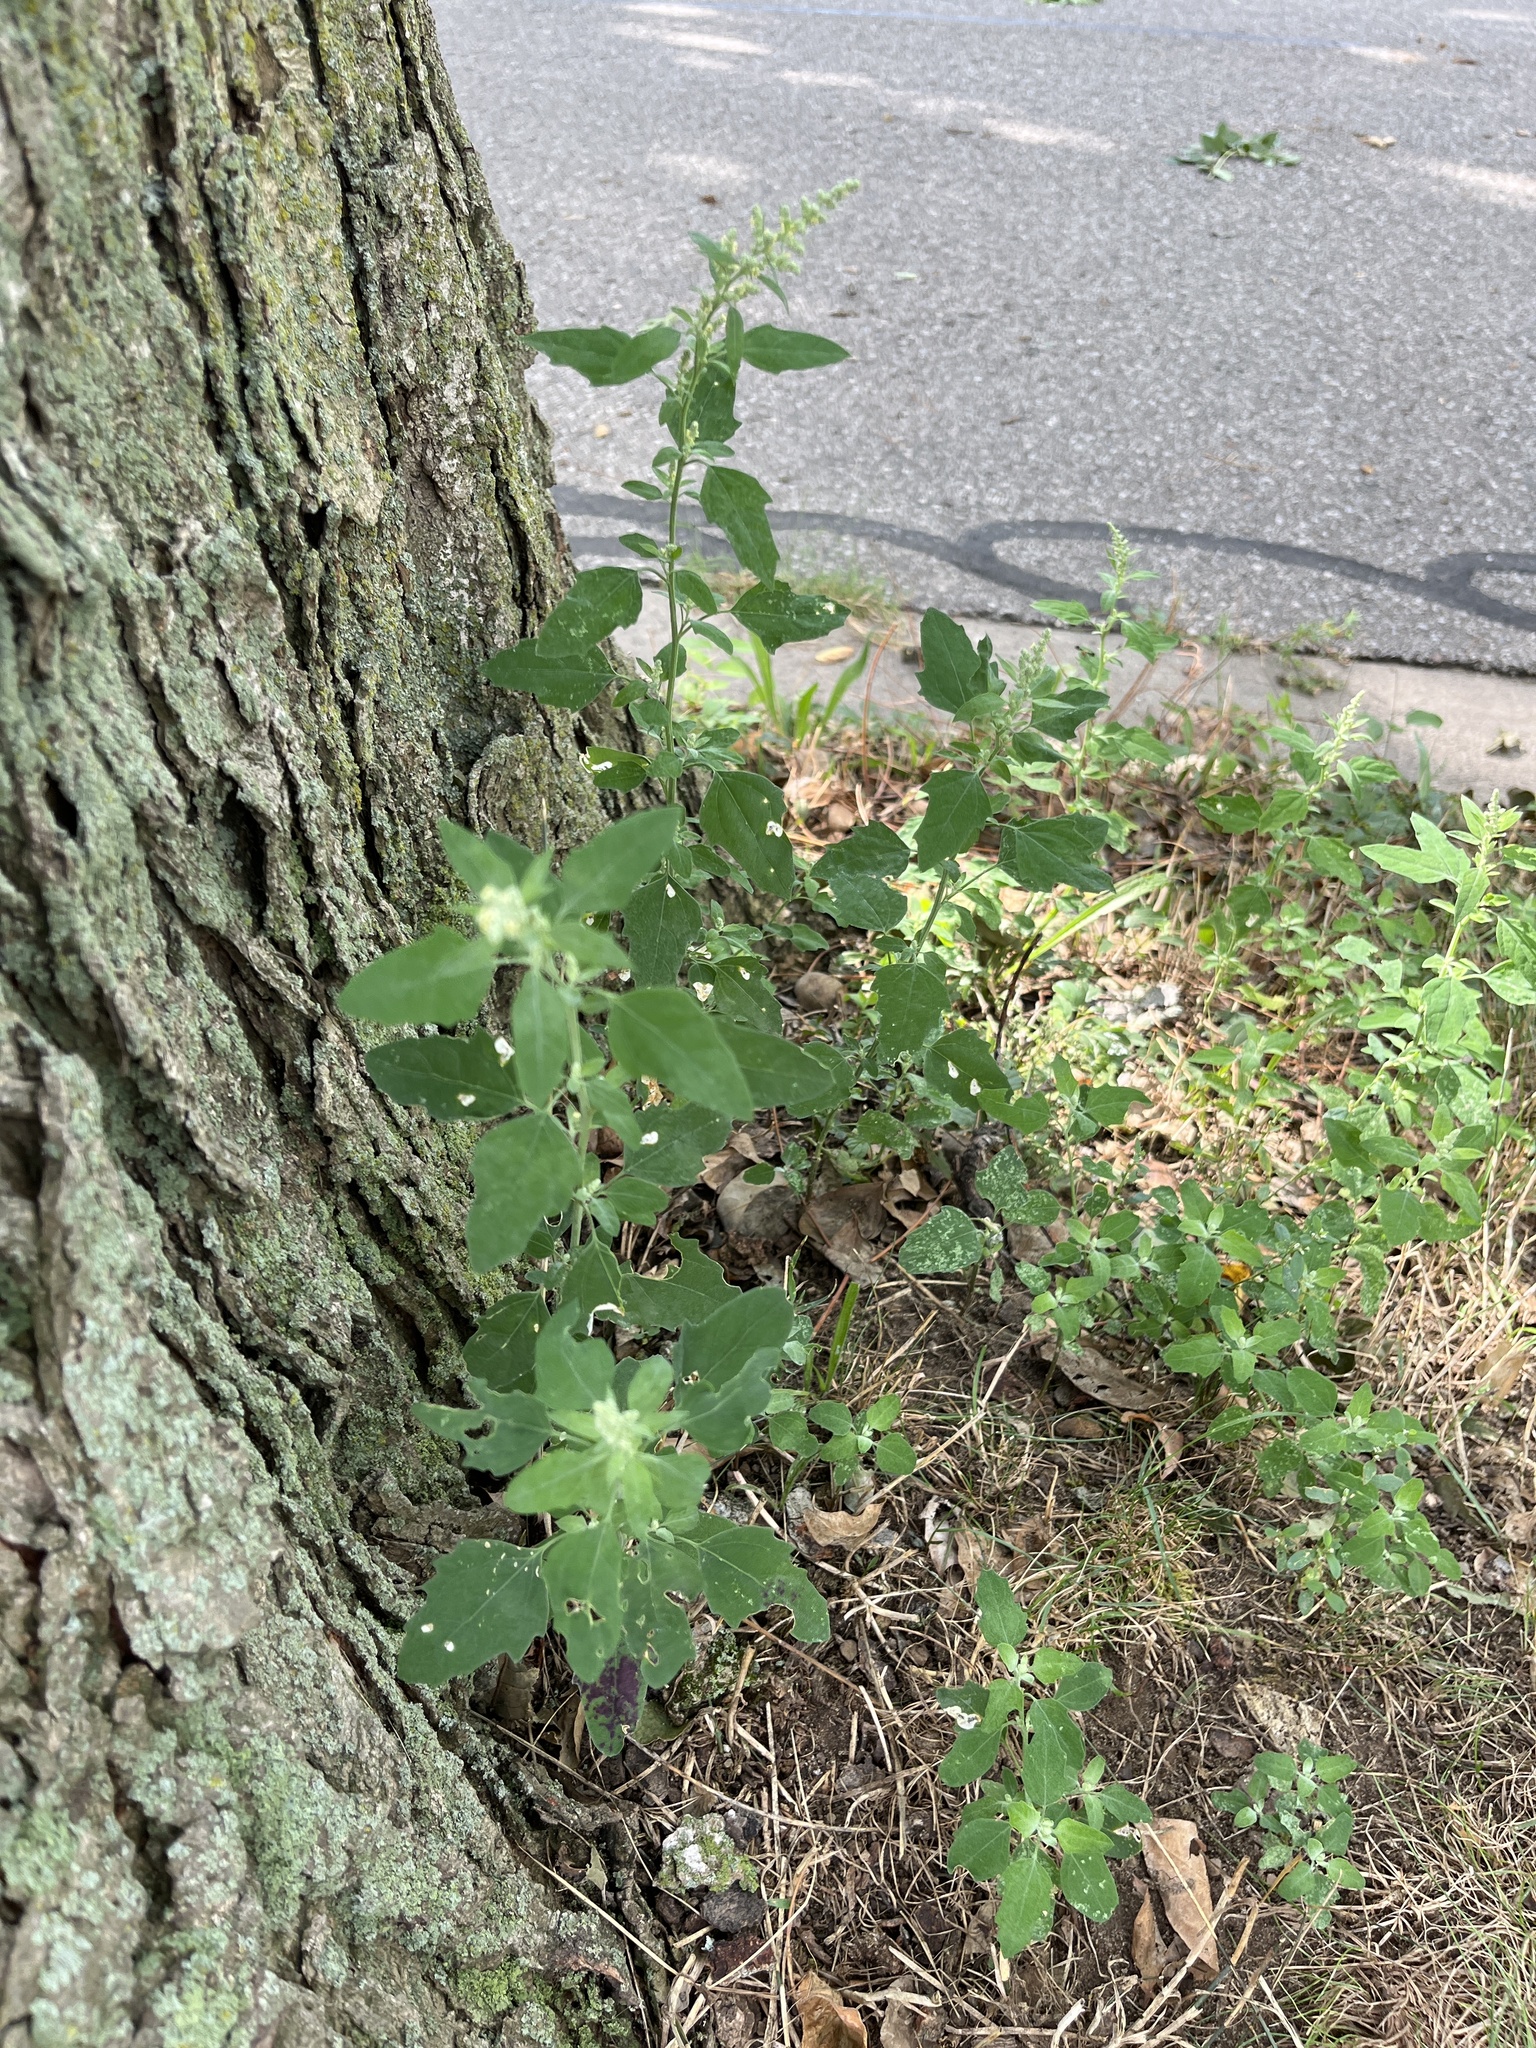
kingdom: Plantae
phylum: Tracheophyta
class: Magnoliopsida
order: Caryophyllales
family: Amaranthaceae
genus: Chenopodium
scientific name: Chenopodium album
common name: Fat-hen
